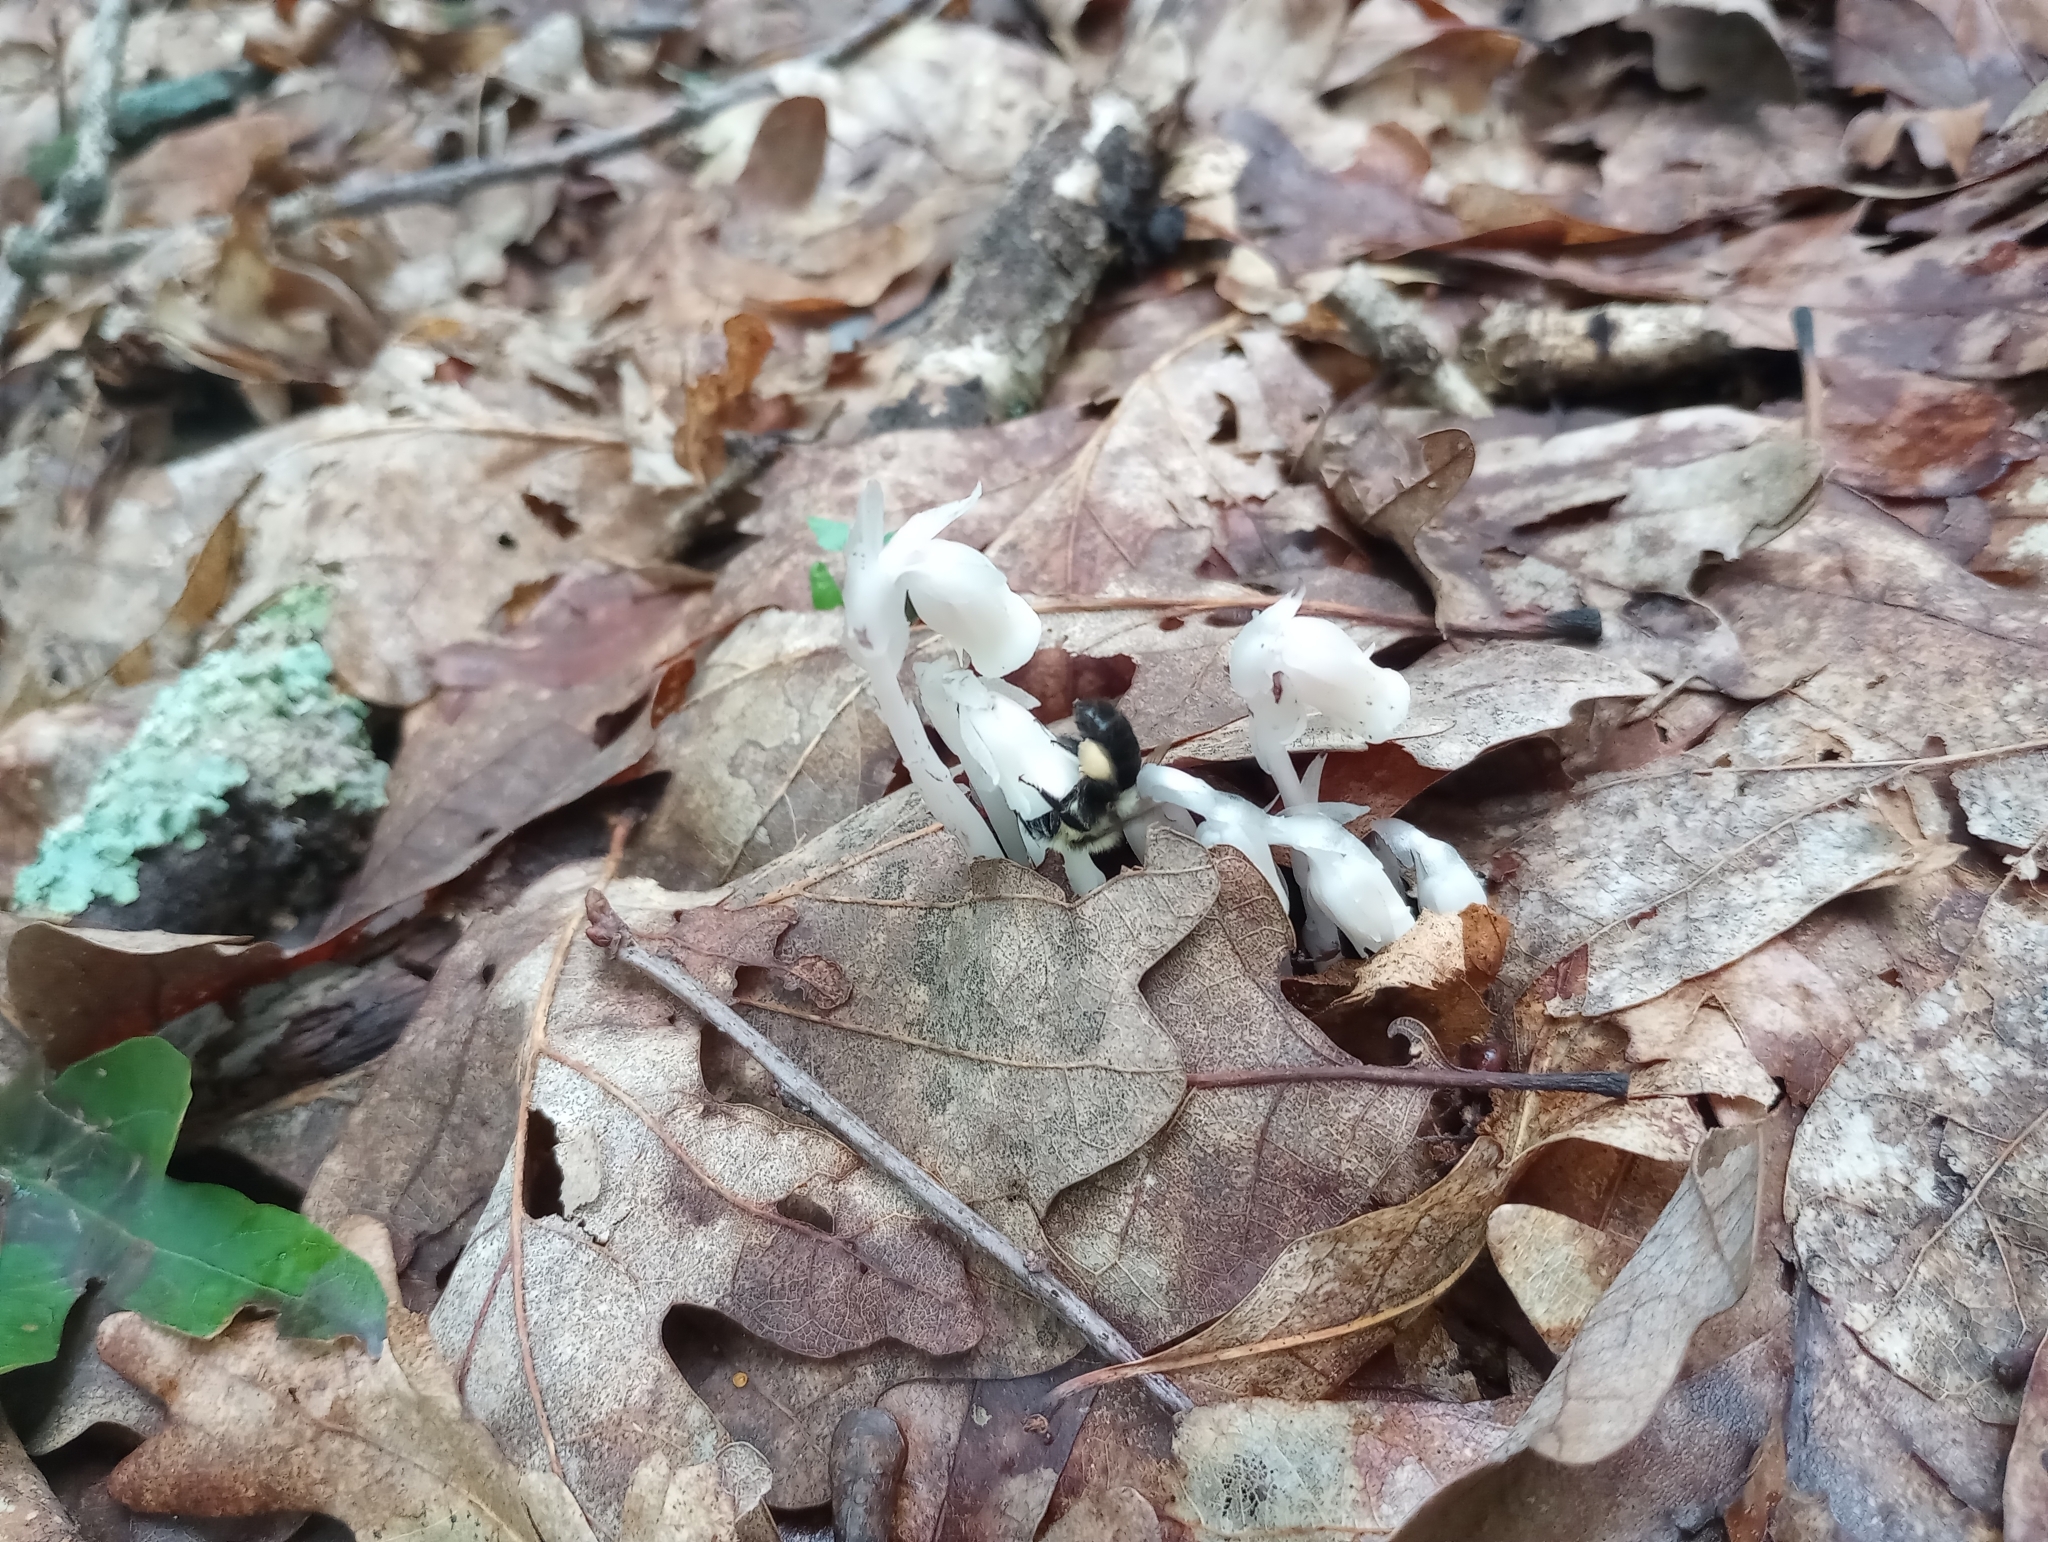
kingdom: Animalia
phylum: Arthropoda
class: Insecta
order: Hymenoptera
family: Apidae
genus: Bombus
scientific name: Bombus impatiens
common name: Common eastern bumble bee
